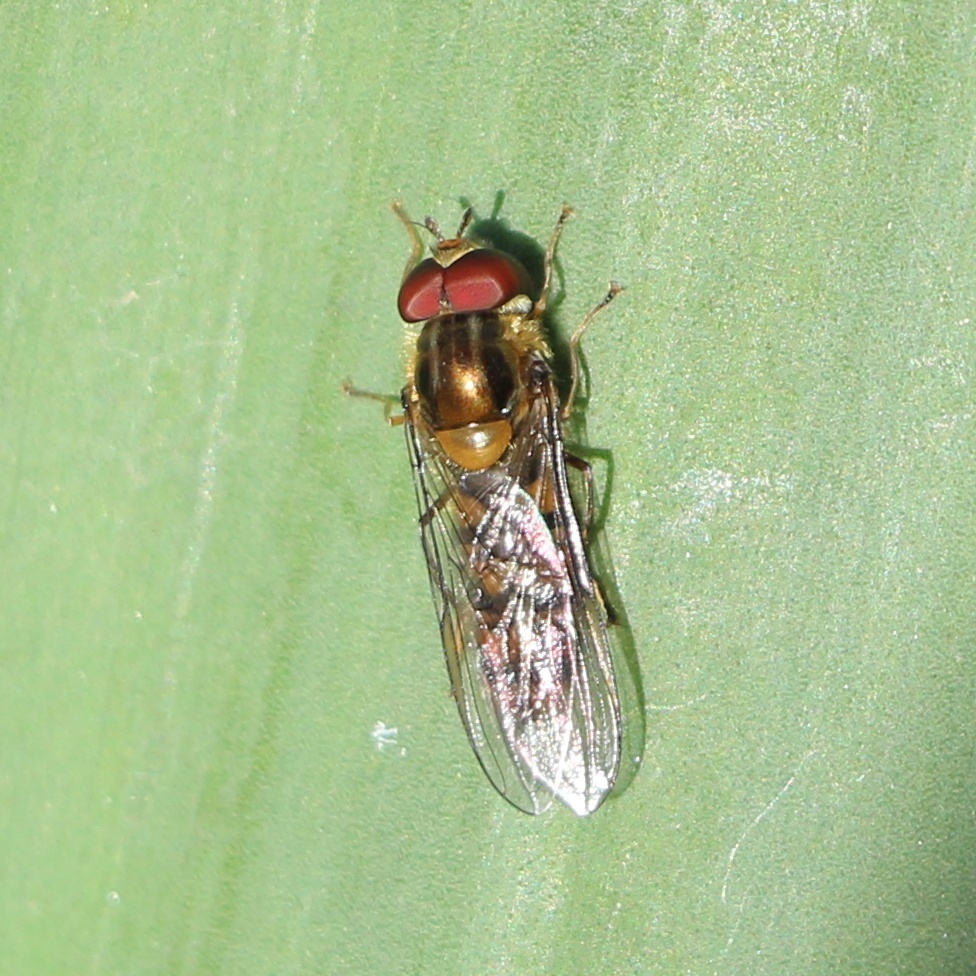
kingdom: Animalia
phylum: Arthropoda
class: Insecta
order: Diptera
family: Syrphidae
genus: Episyrphus
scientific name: Episyrphus balteatus
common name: Marmalade hoverfly
